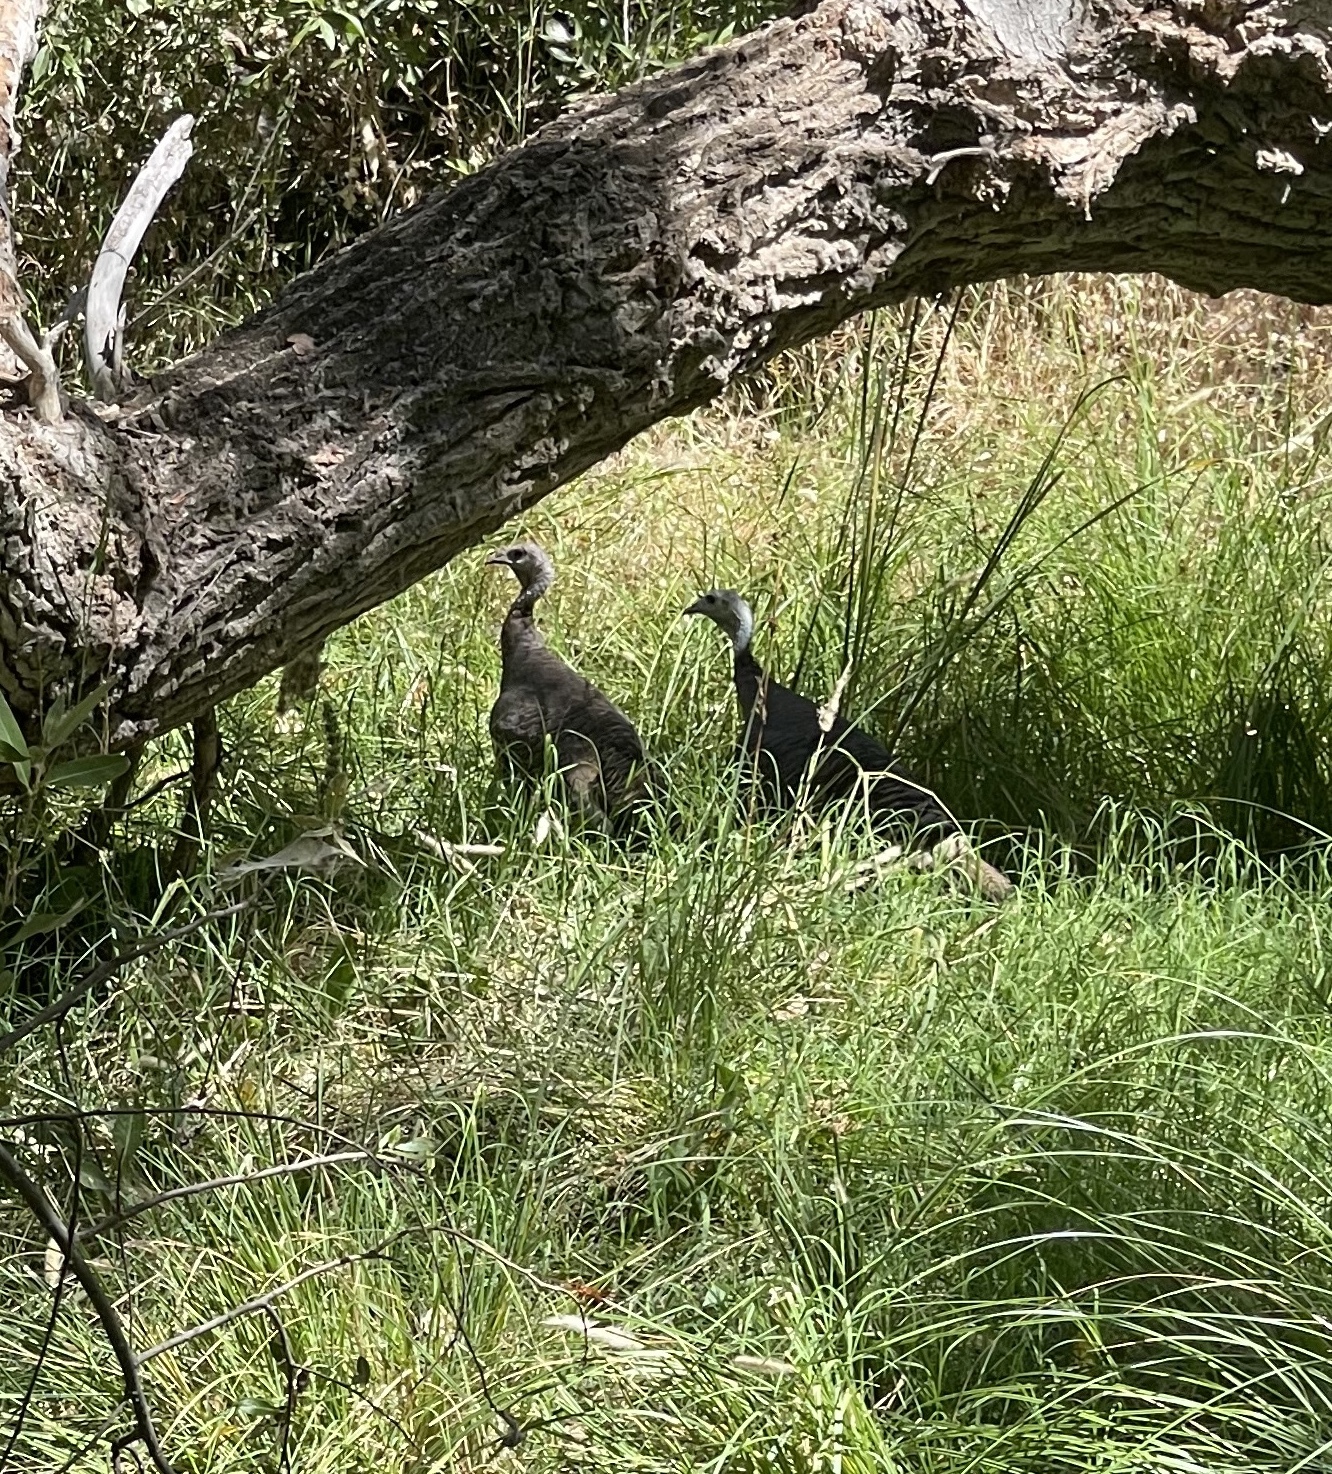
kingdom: Animalia
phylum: Chordata
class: Aves
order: Galliformes
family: Phasianidae
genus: Meleagris
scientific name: Meleagris gallopavo
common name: Wild turkey
